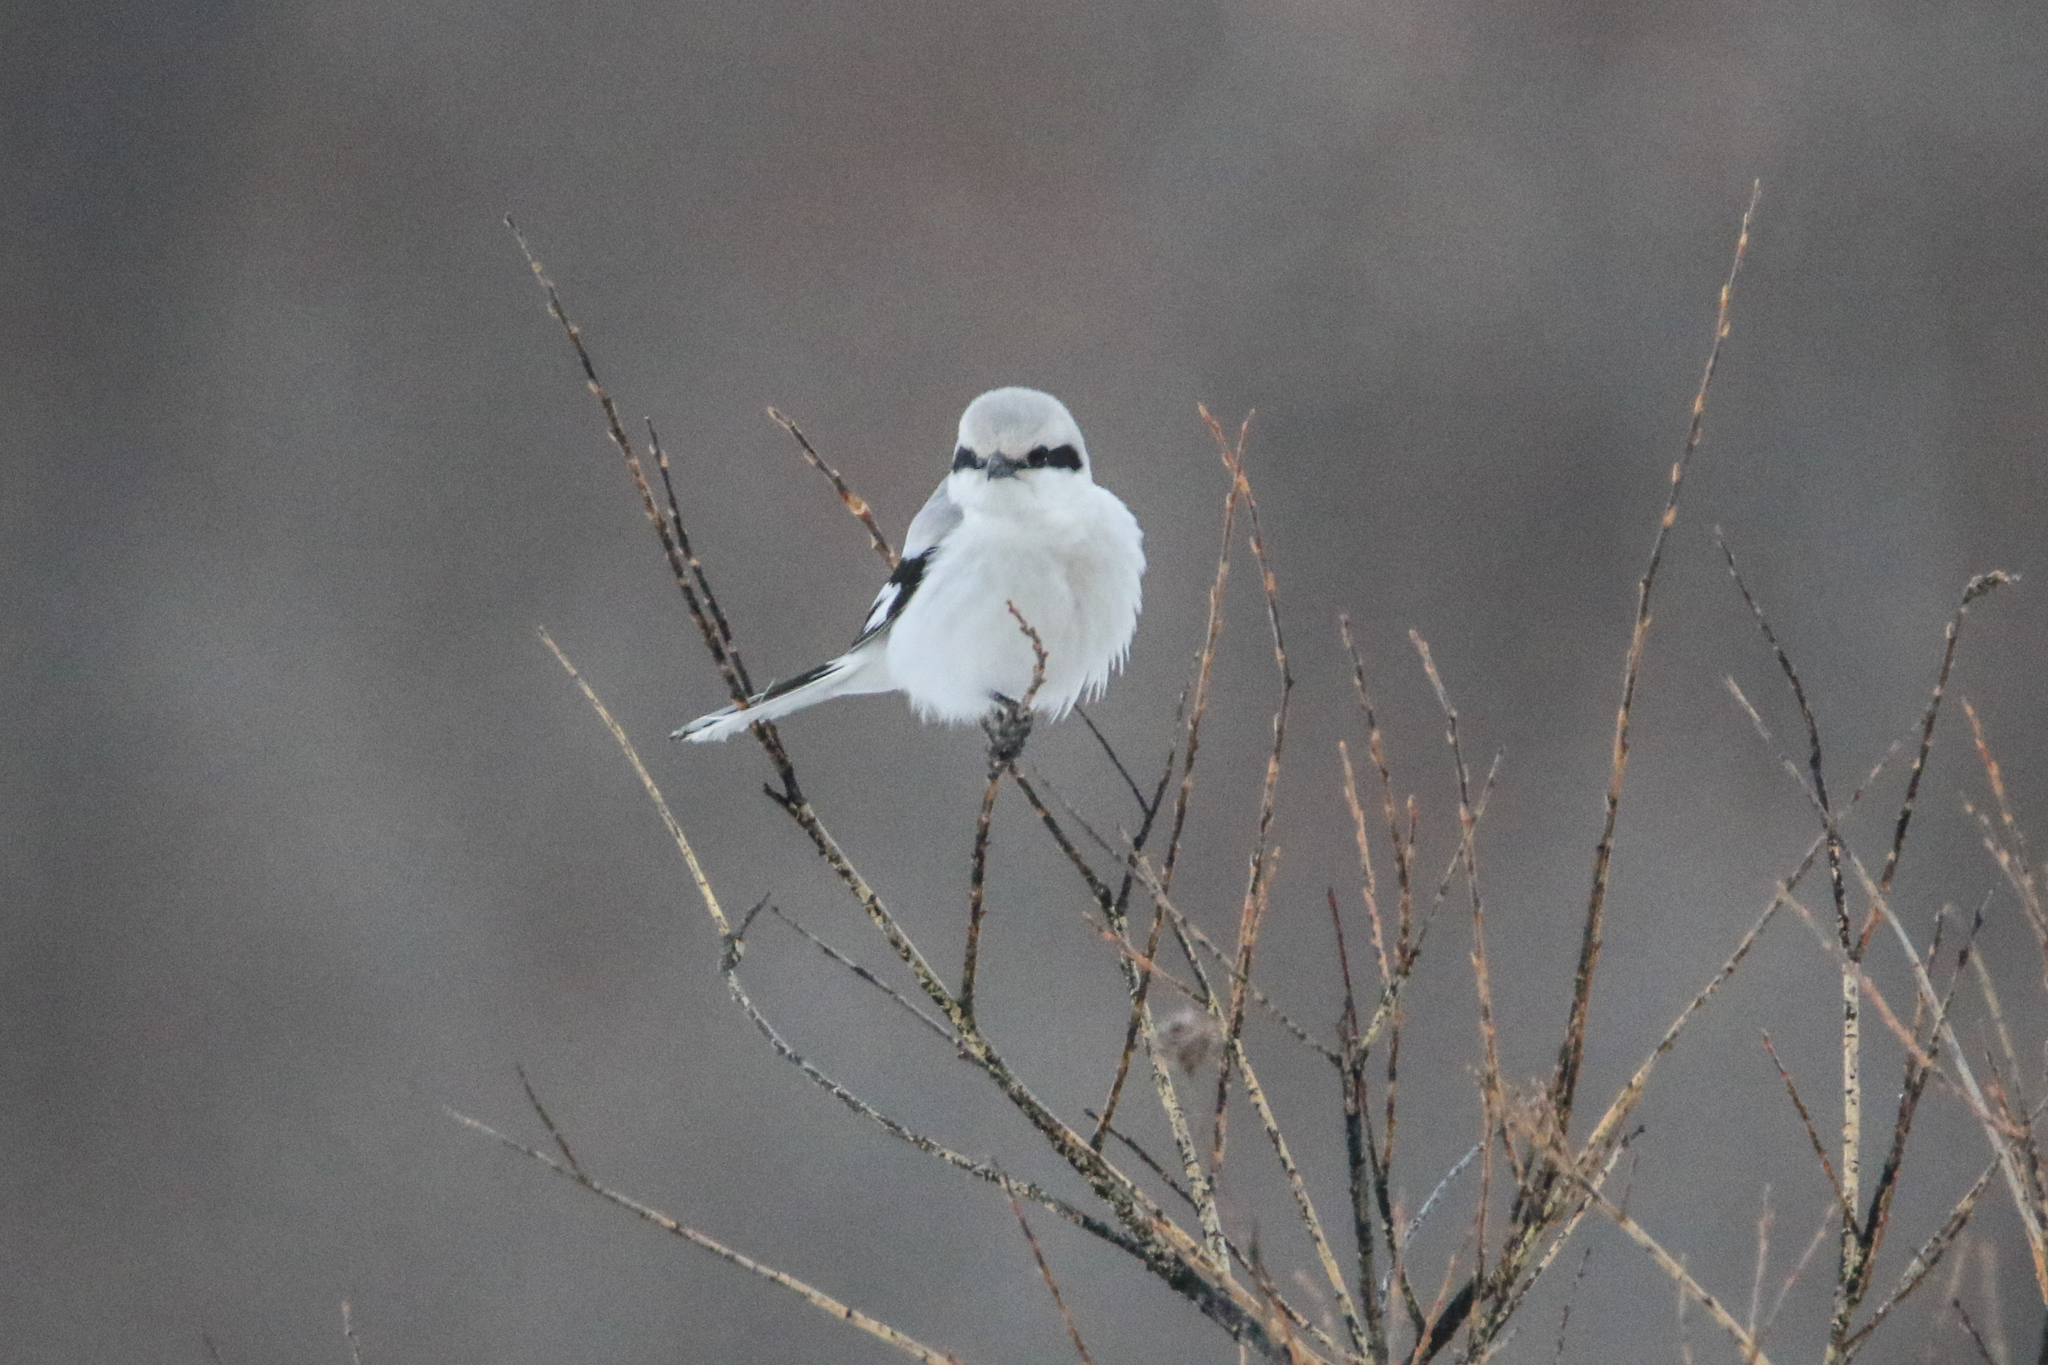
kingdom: Animalia
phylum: Chordata
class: Aves
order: Passeriformes
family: Laniidae
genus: Lanius
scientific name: Lanius excubitor
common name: Great grey shrike
